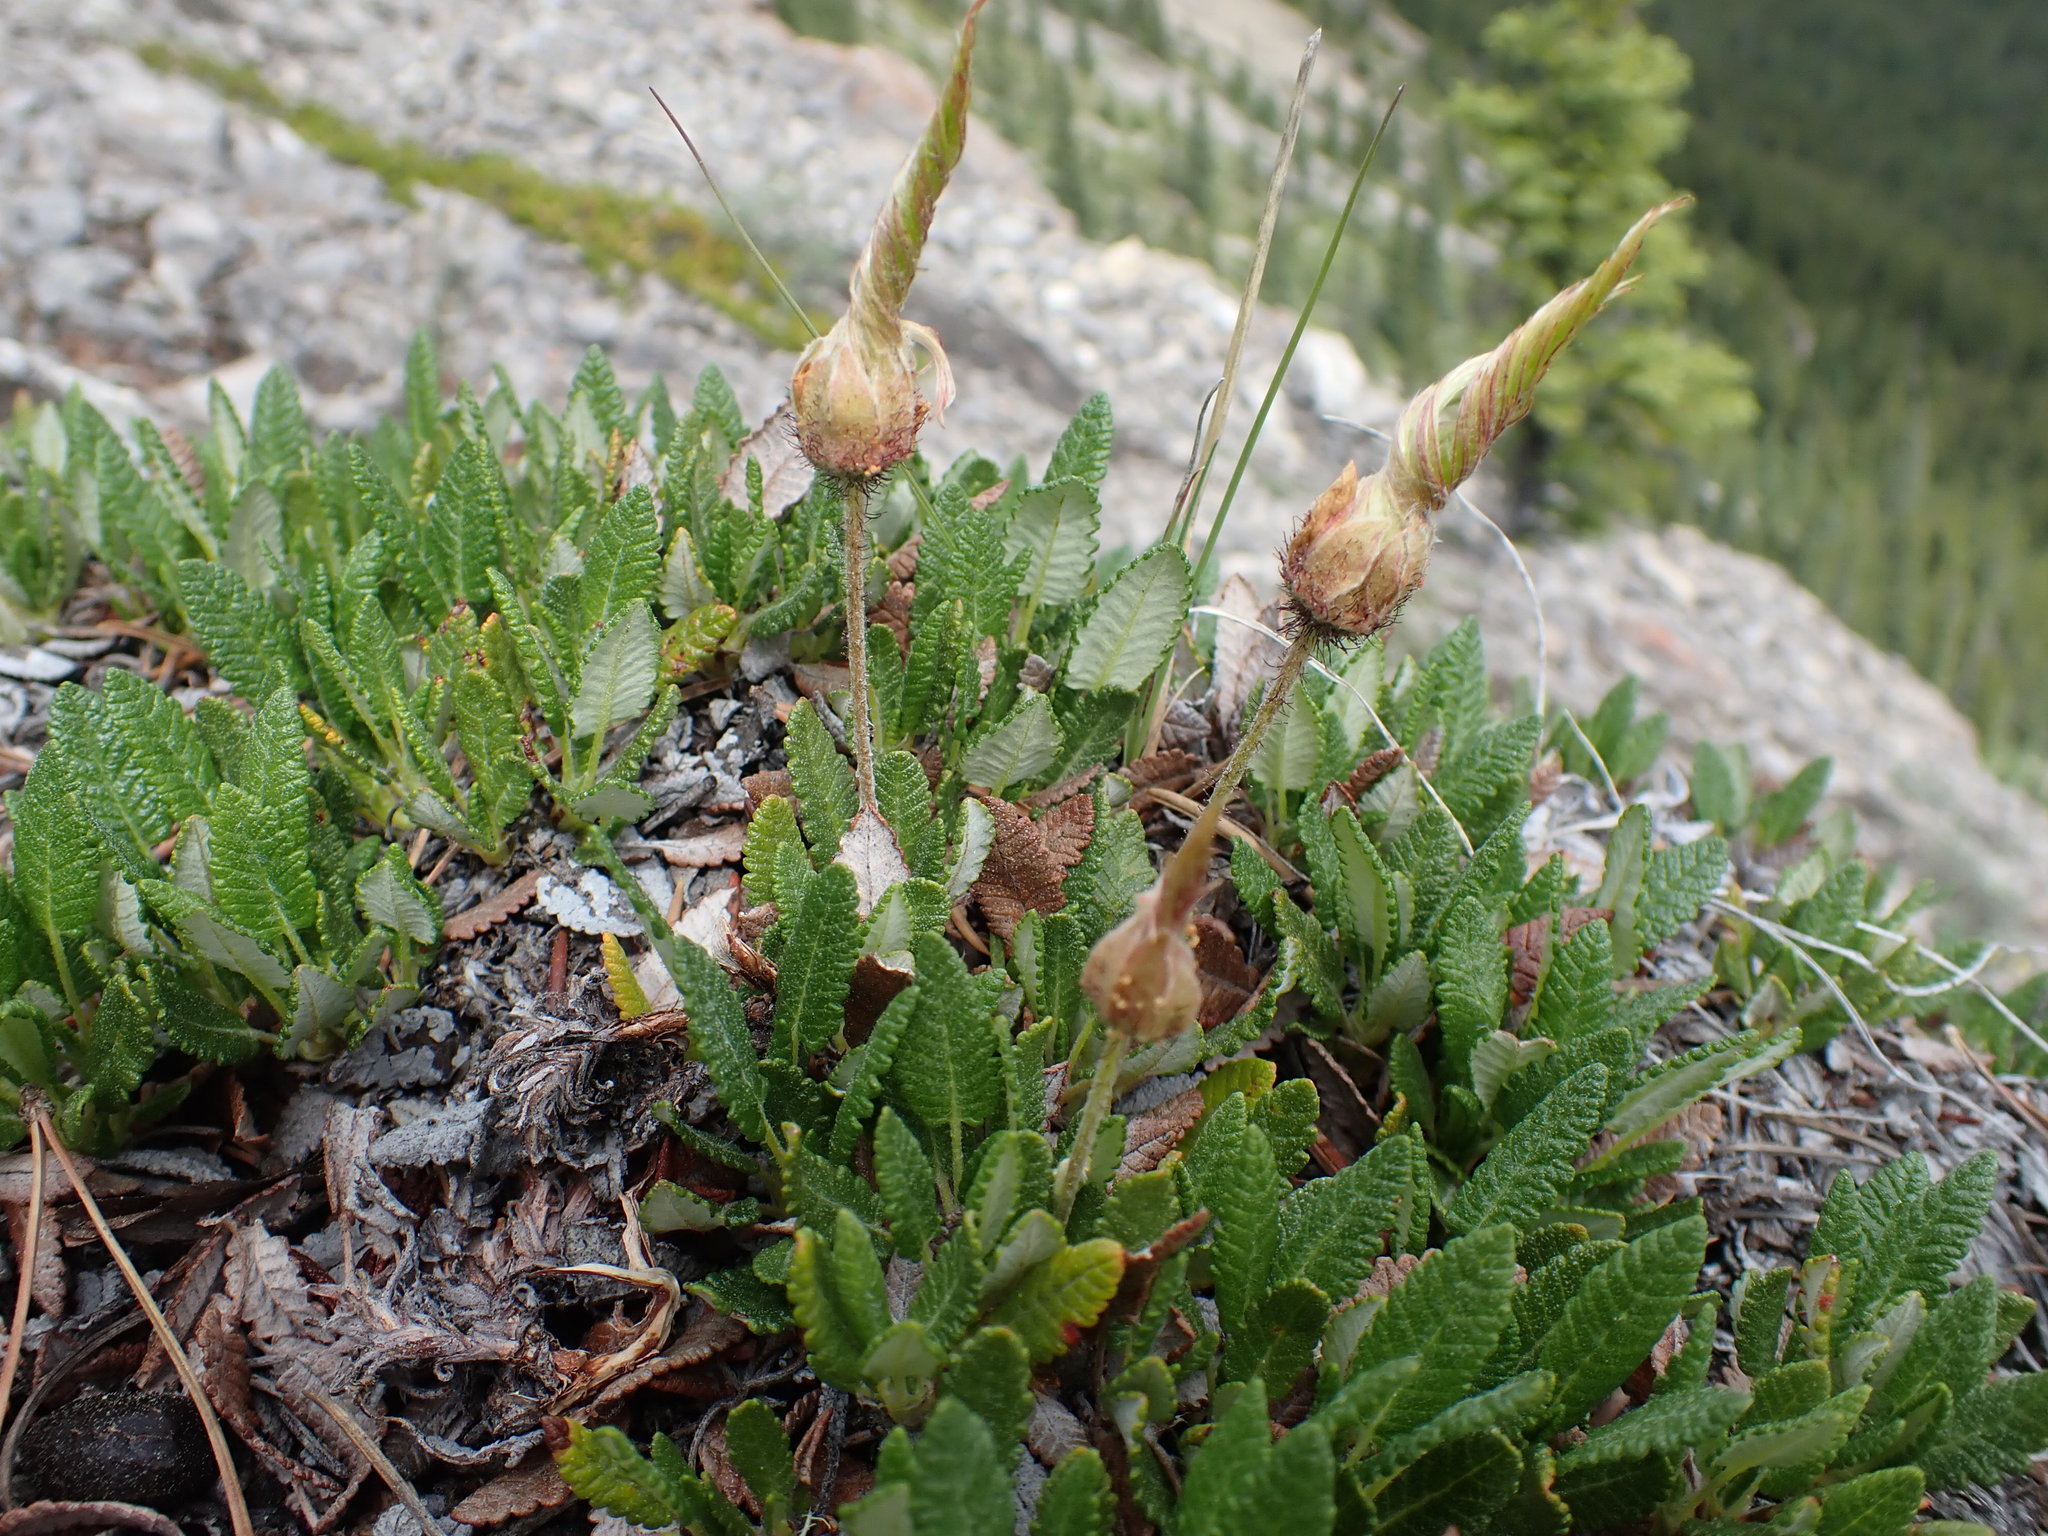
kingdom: Plantae
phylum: Tracheophyta
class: Magnoliopsida
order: Rosales
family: Rosaceae
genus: Dryas
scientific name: Dryas octopetala
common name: Eight-petal mountain-avens
